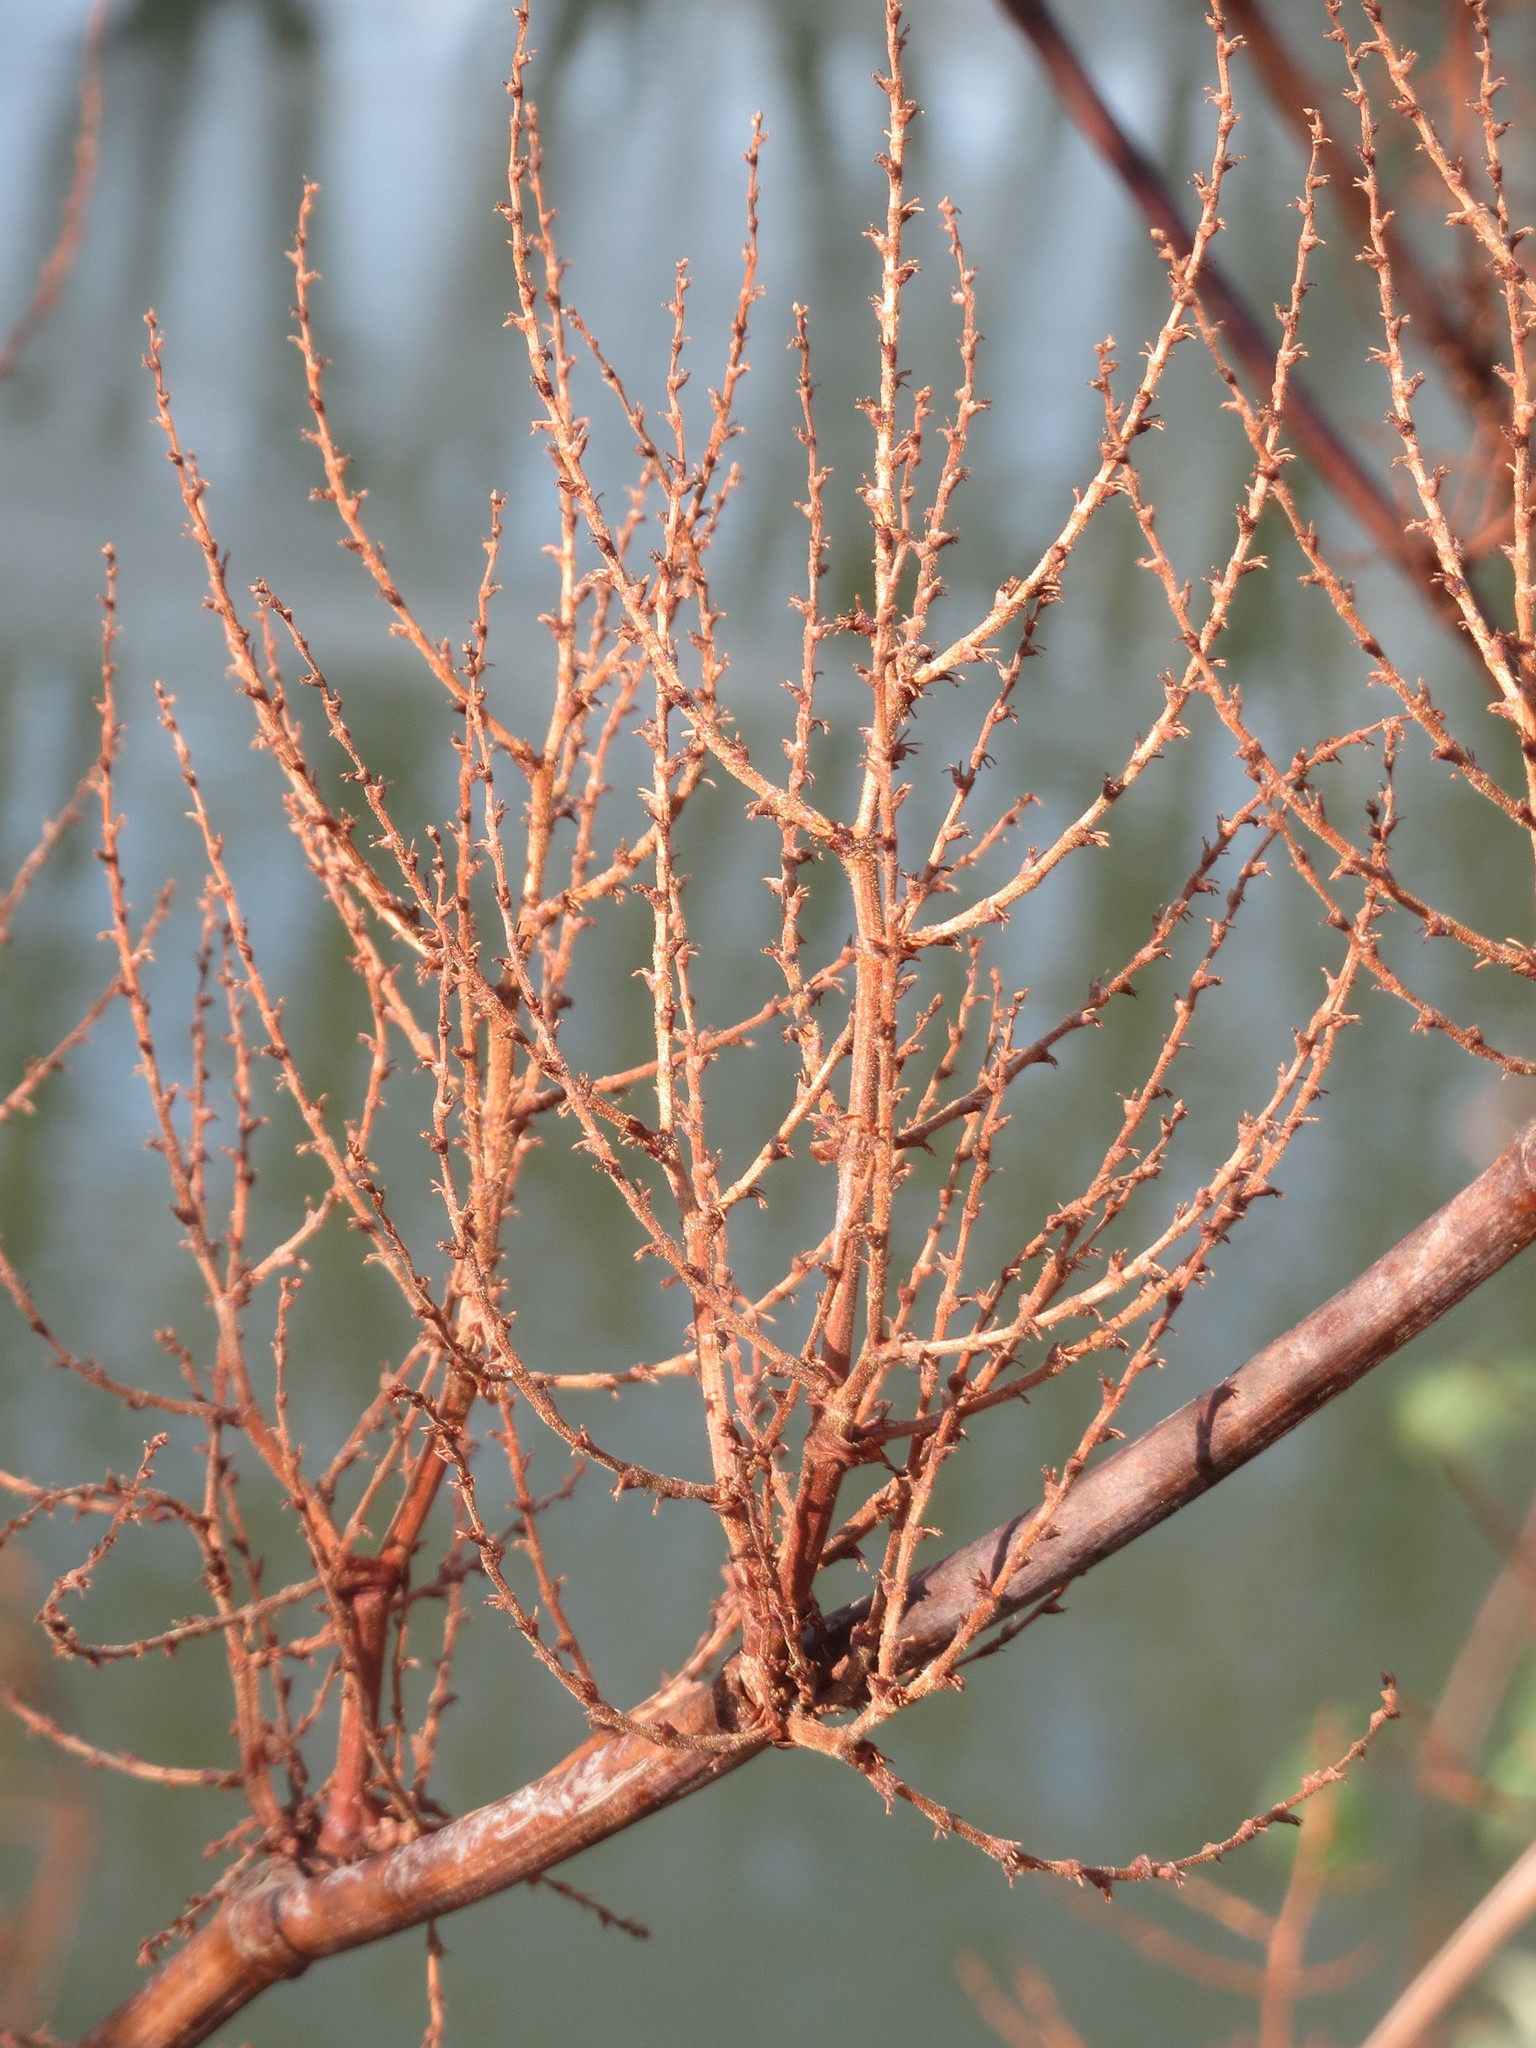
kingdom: Plantae
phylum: Tracheophyta
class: Magnoliopsida
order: Caryophyllales
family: Polygonaceae
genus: Reynoutria
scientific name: Reynoutria japonica
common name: Japanese knotweed
